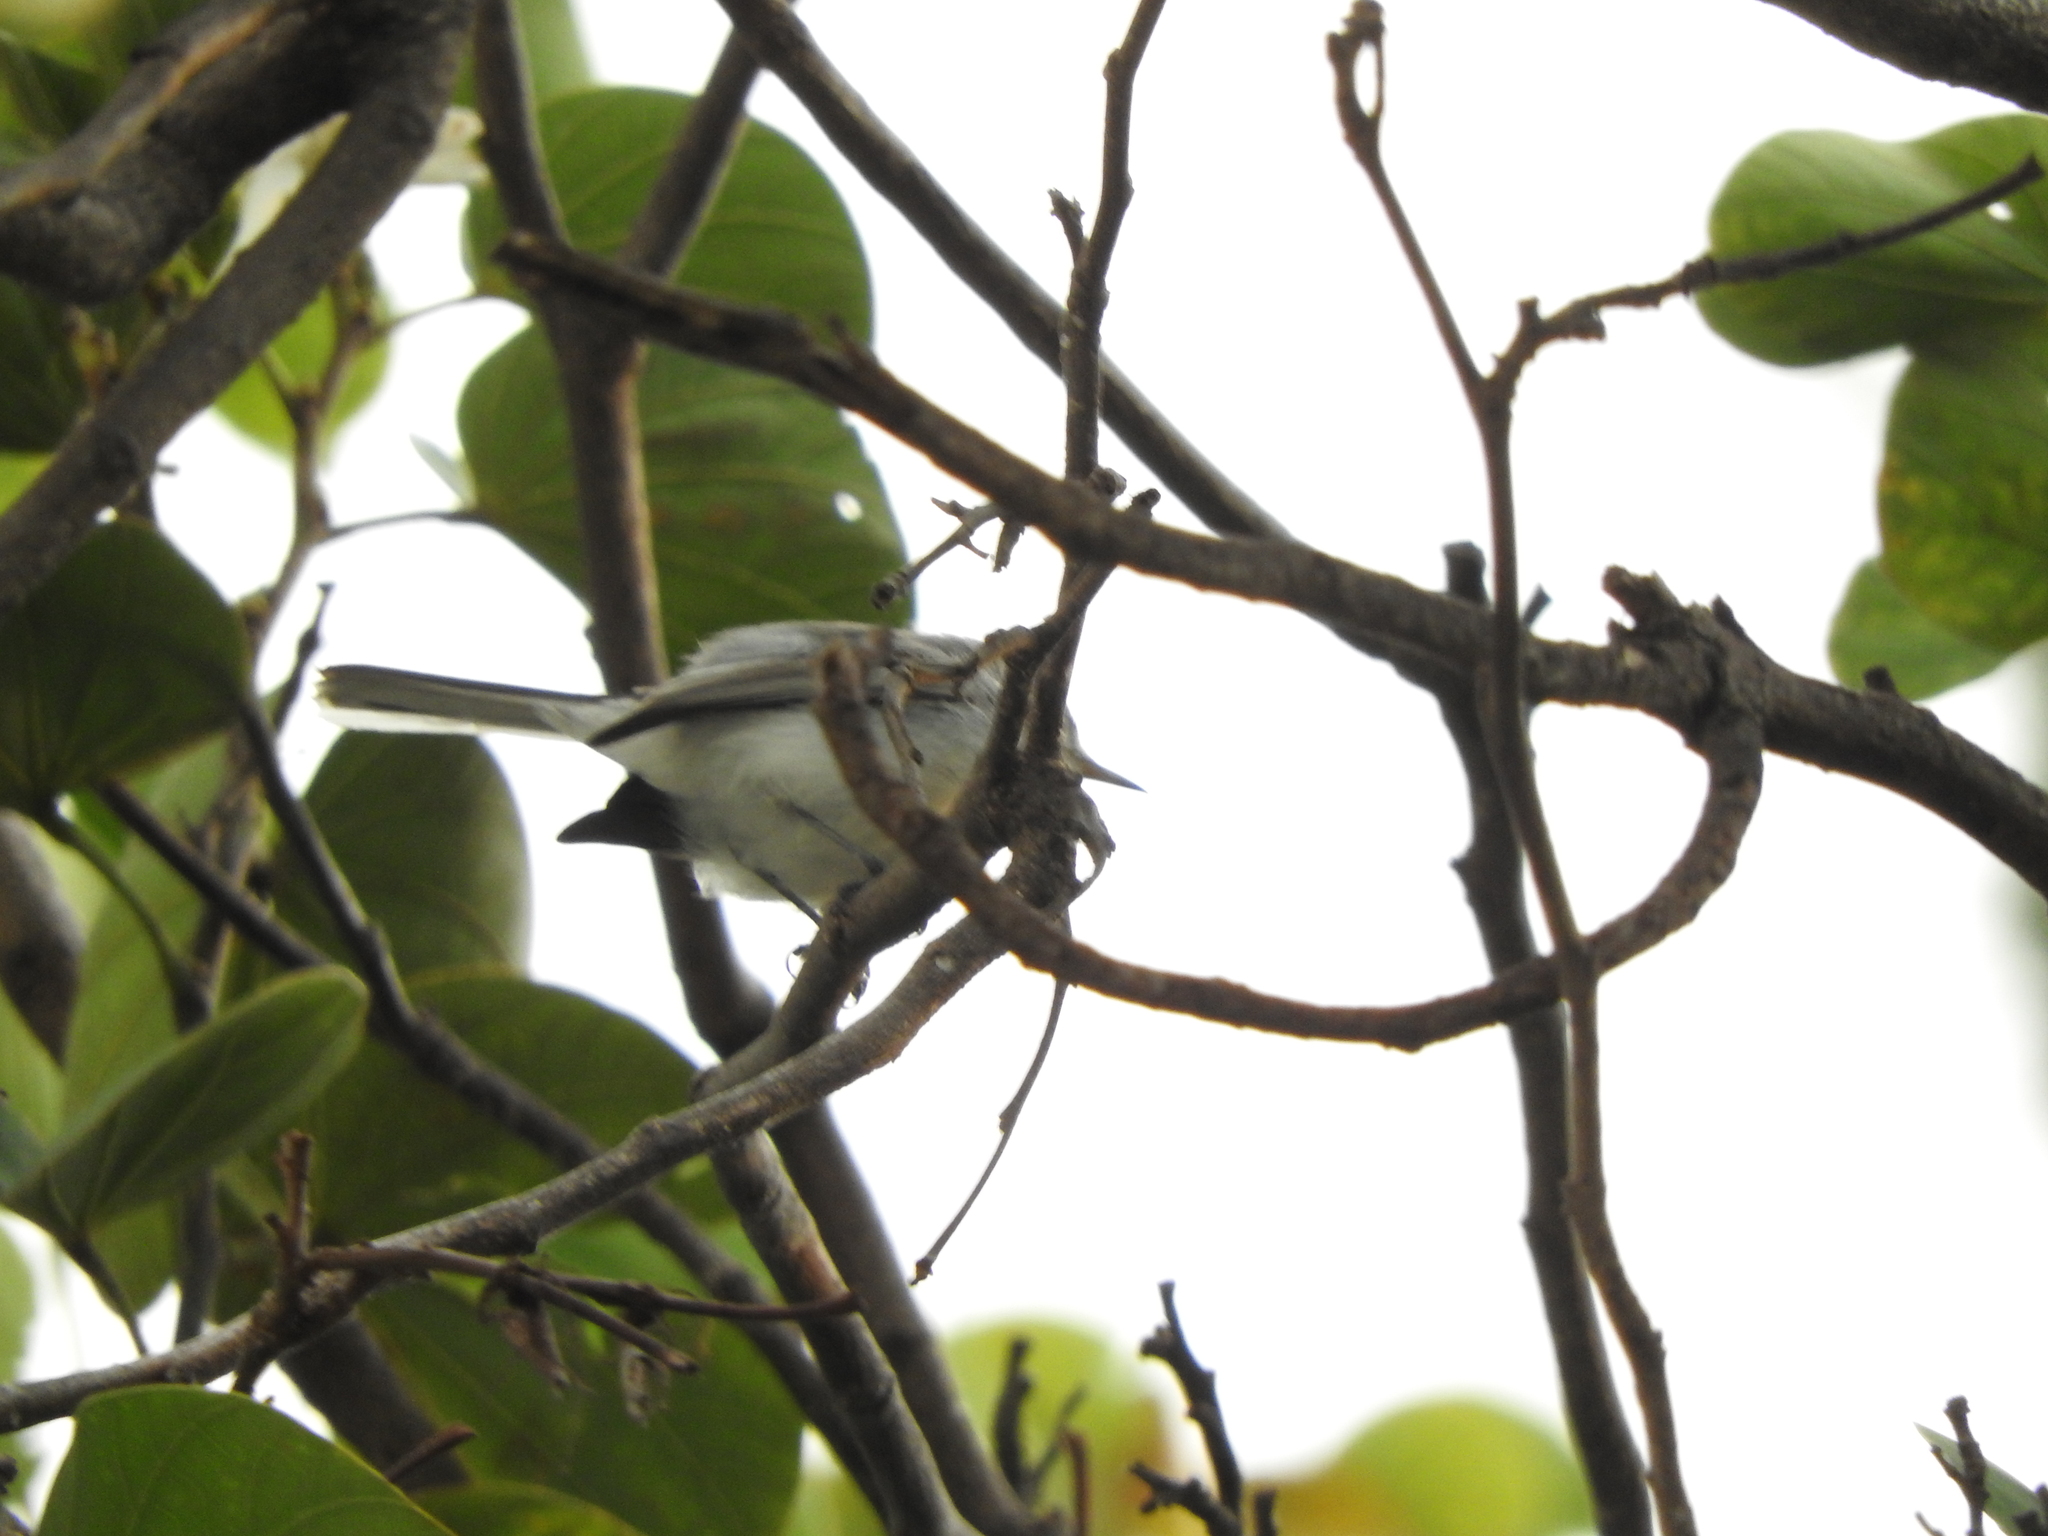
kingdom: Animalia
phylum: Chordata
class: Aves
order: Passeriformes
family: Polioptilidae
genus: Polioptila
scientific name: Polioptila caerulea
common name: Blue-gray gnatcatcher
